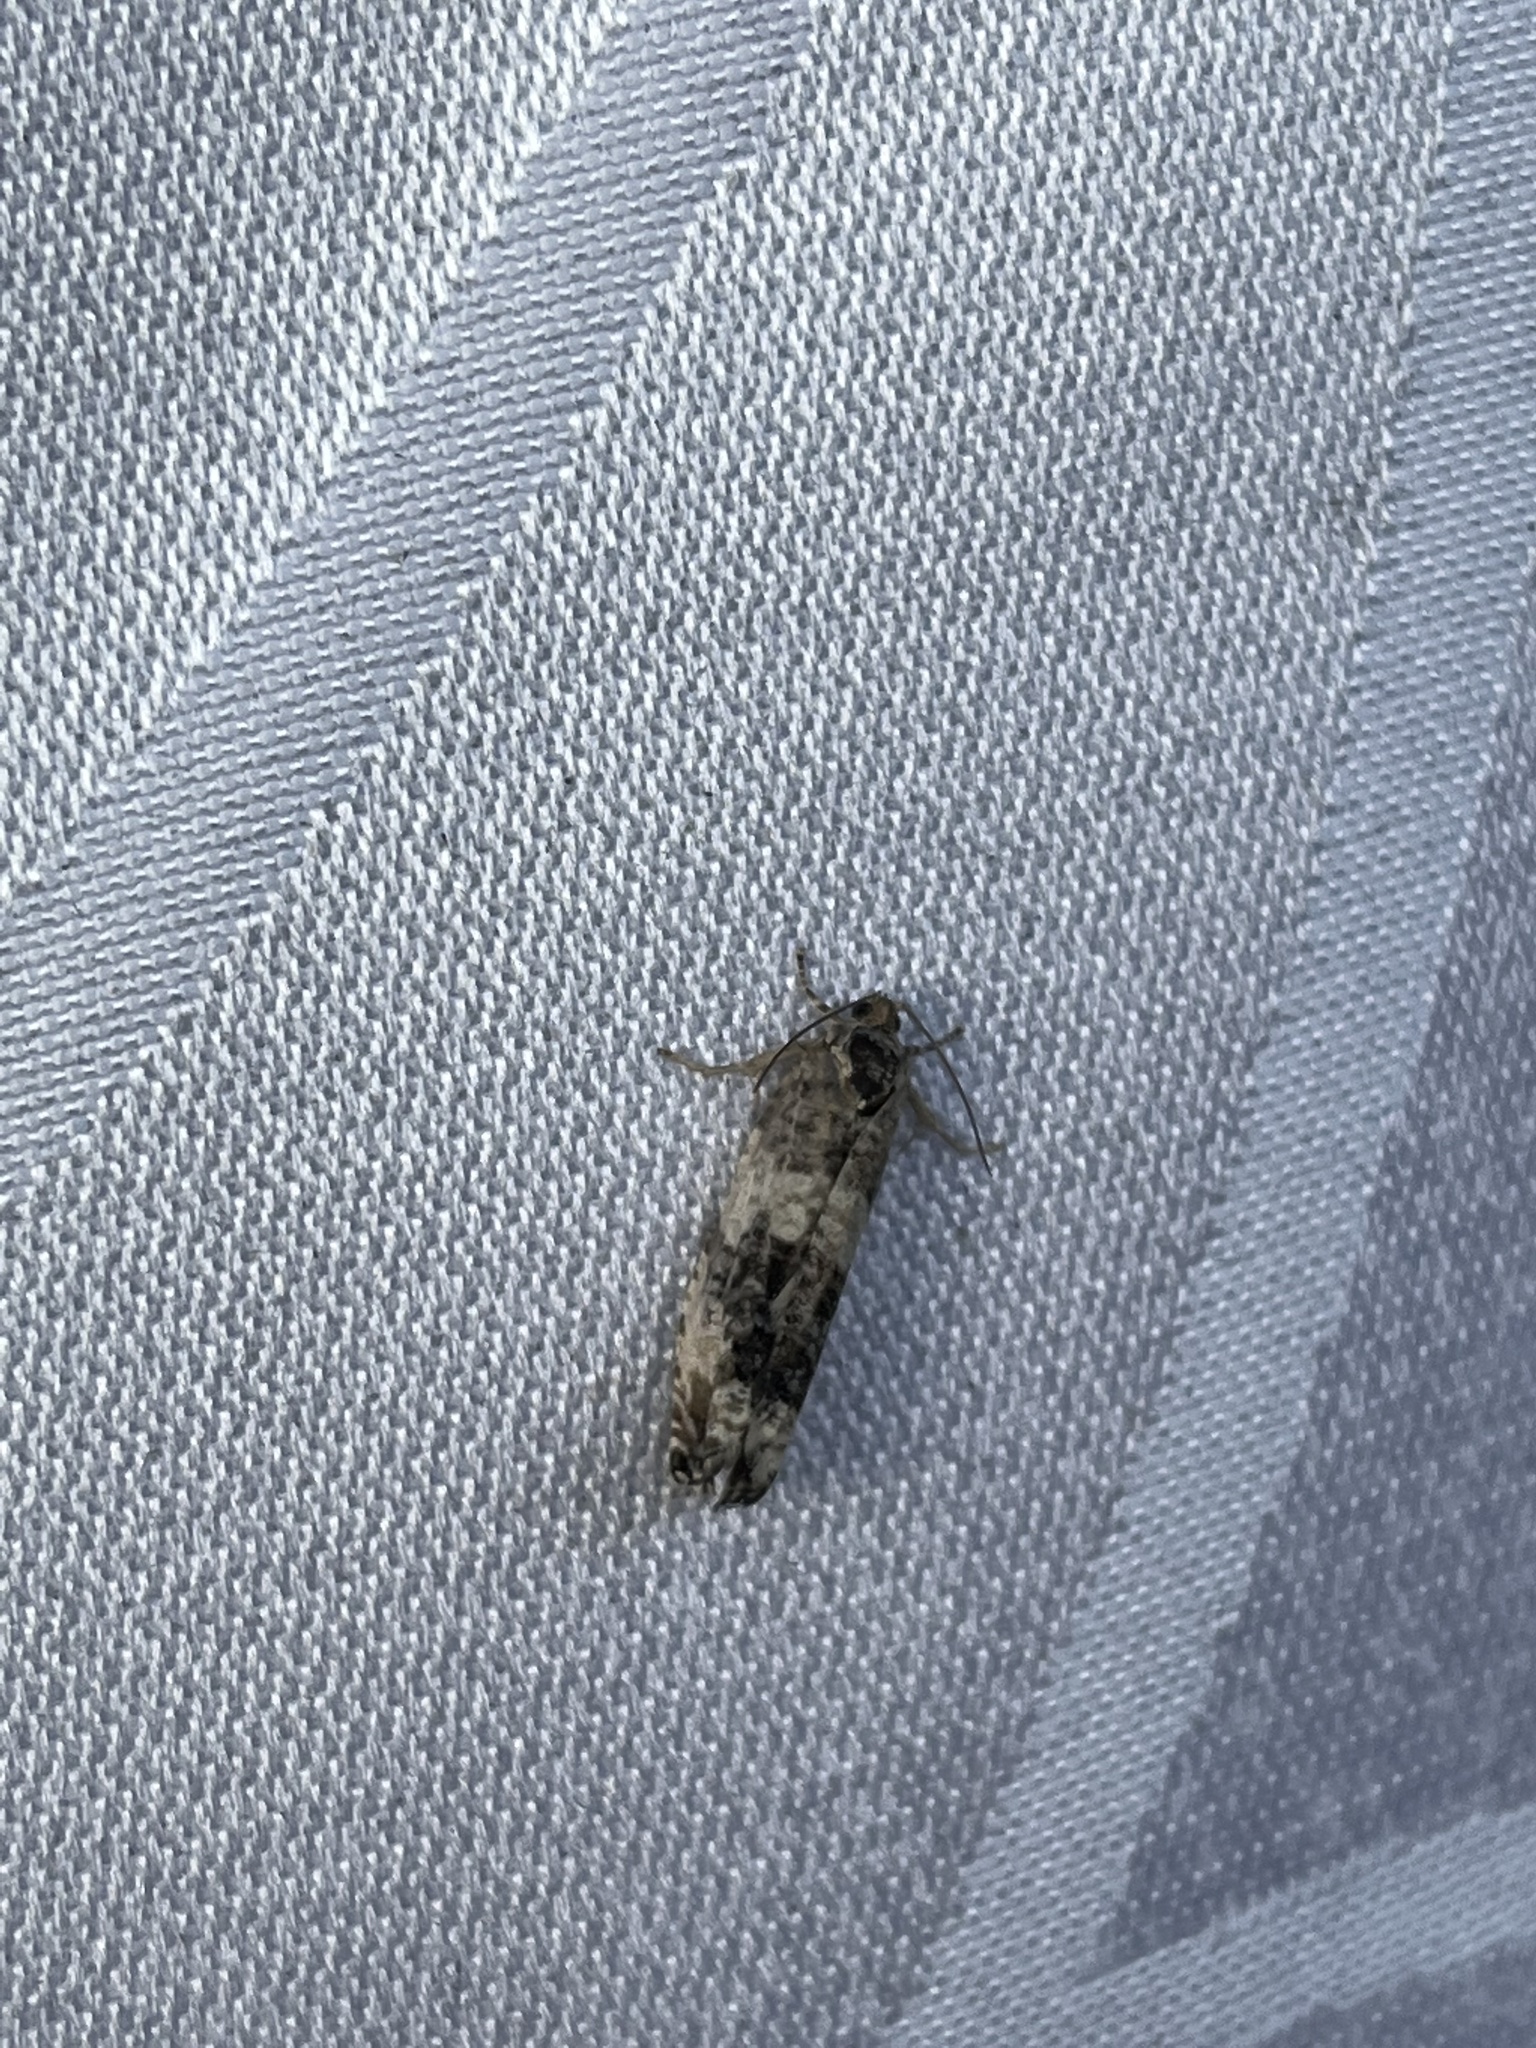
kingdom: Animalia
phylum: Arthropoda
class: Insecta
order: Lepidoptera
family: Tortricidae
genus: Pseudosciaphila
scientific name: Pseudosciaphila duplex
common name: Poplar leafroller moth
